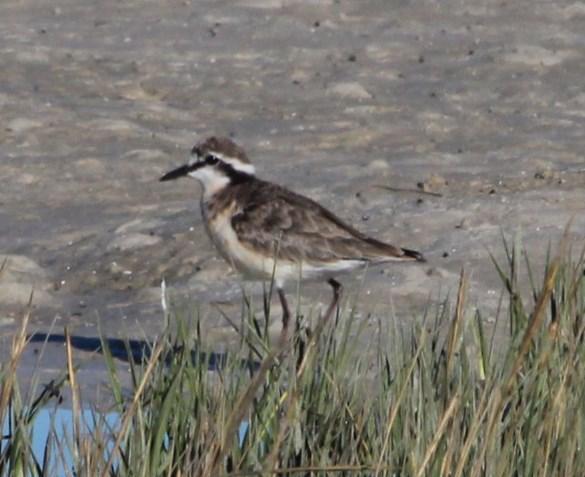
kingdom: Animalia
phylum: Chordata
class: Aves
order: Charadriiformes
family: Charadriidae
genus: Anarhynchus
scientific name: Anarhynchus
